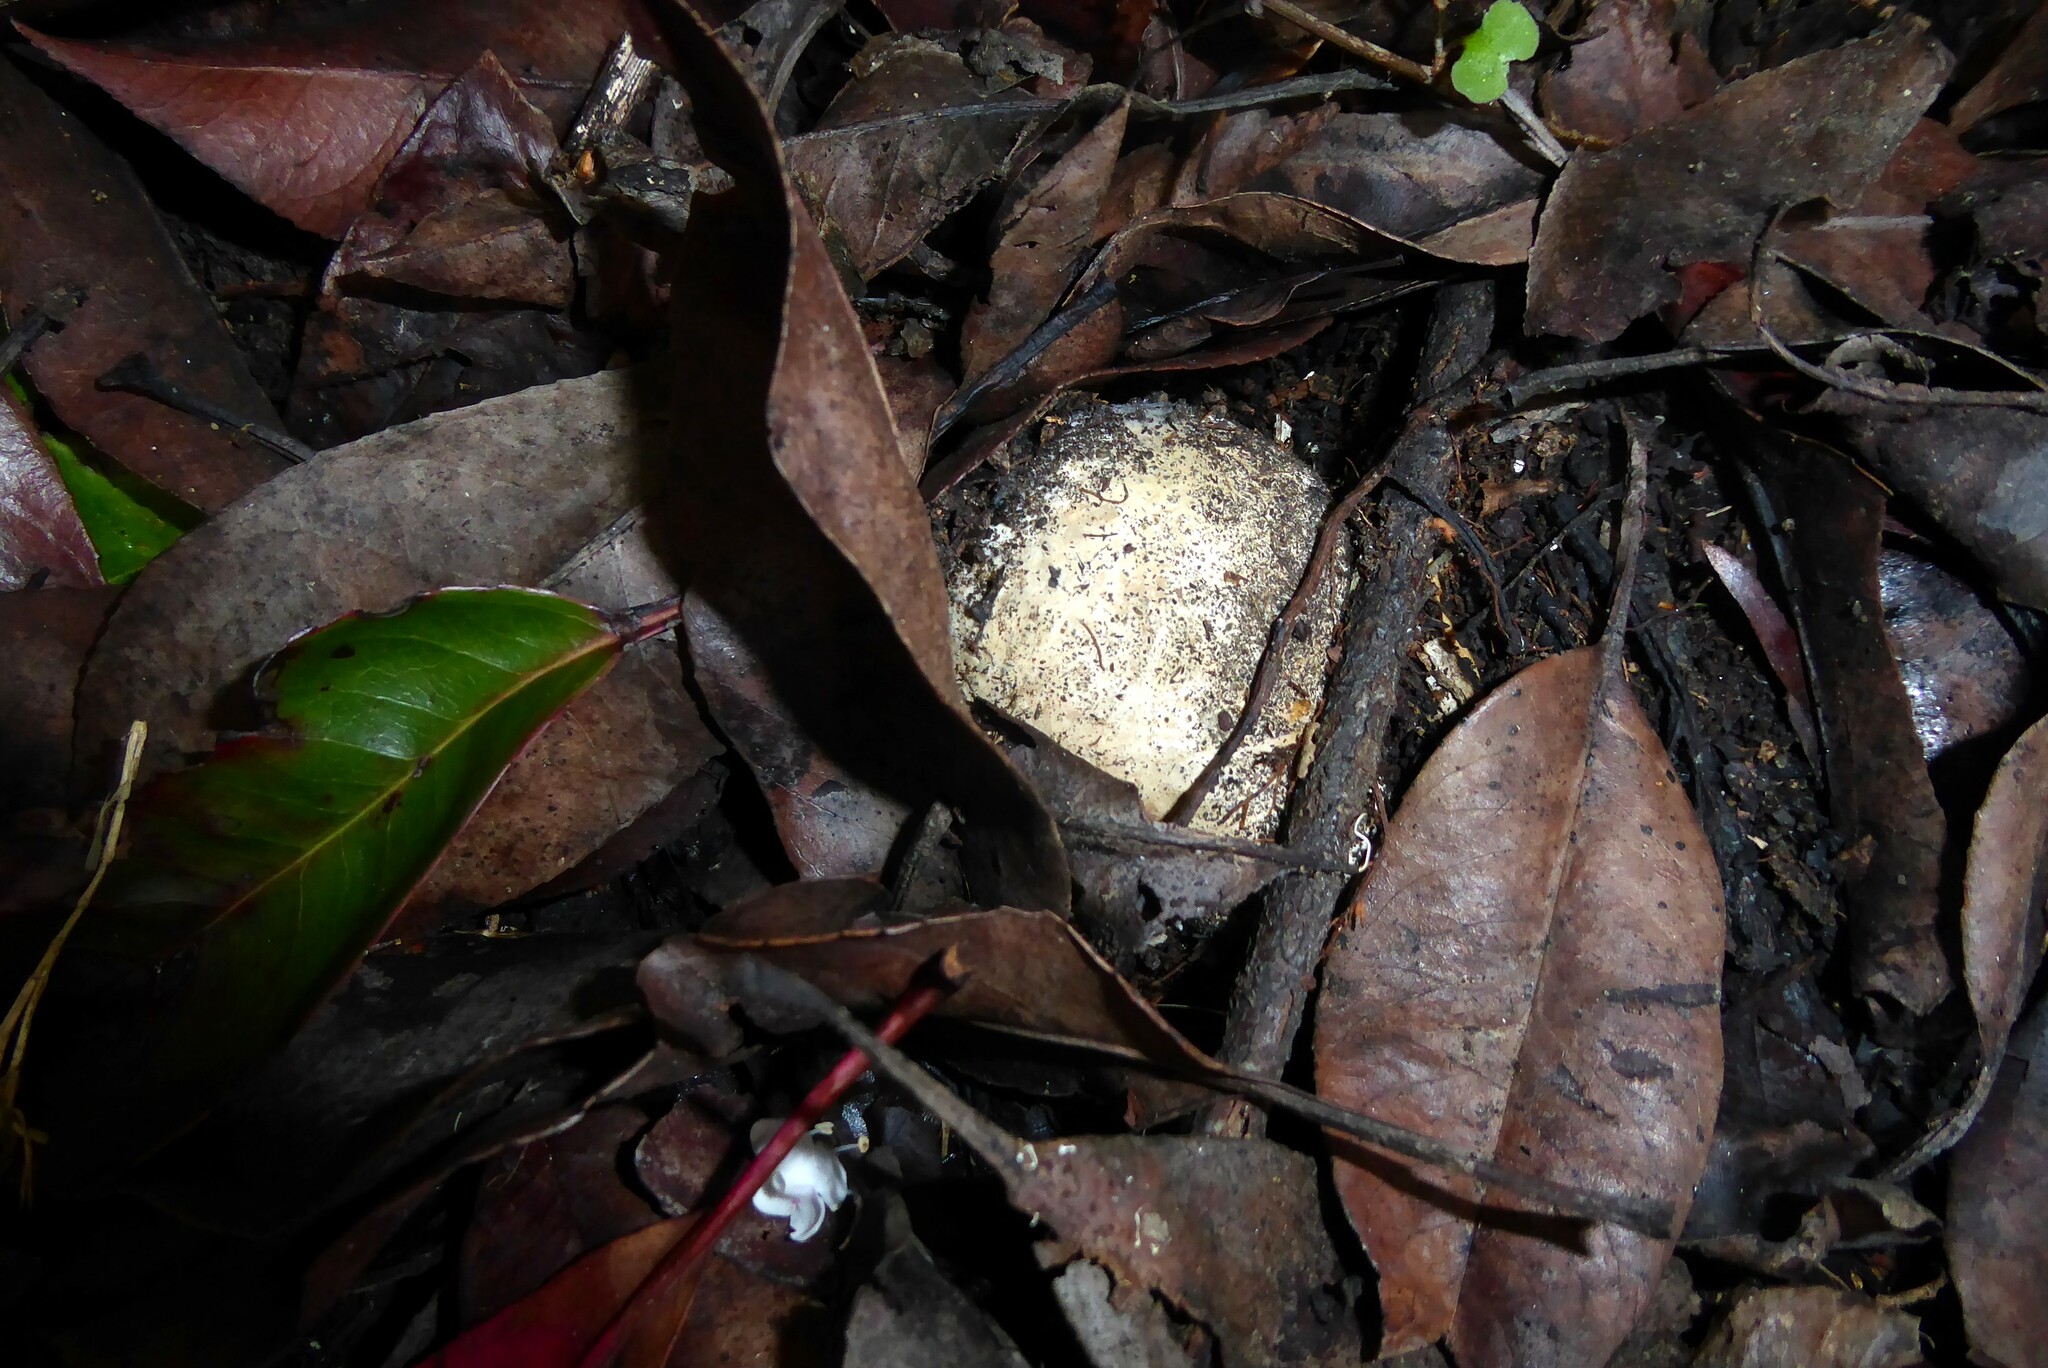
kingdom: Fungi
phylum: Basidiomycota
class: Agaricomycetes
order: Phallales
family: Phallaceae
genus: Ileodictyon
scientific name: Ileodictyon cibarium
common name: Basket fungus
